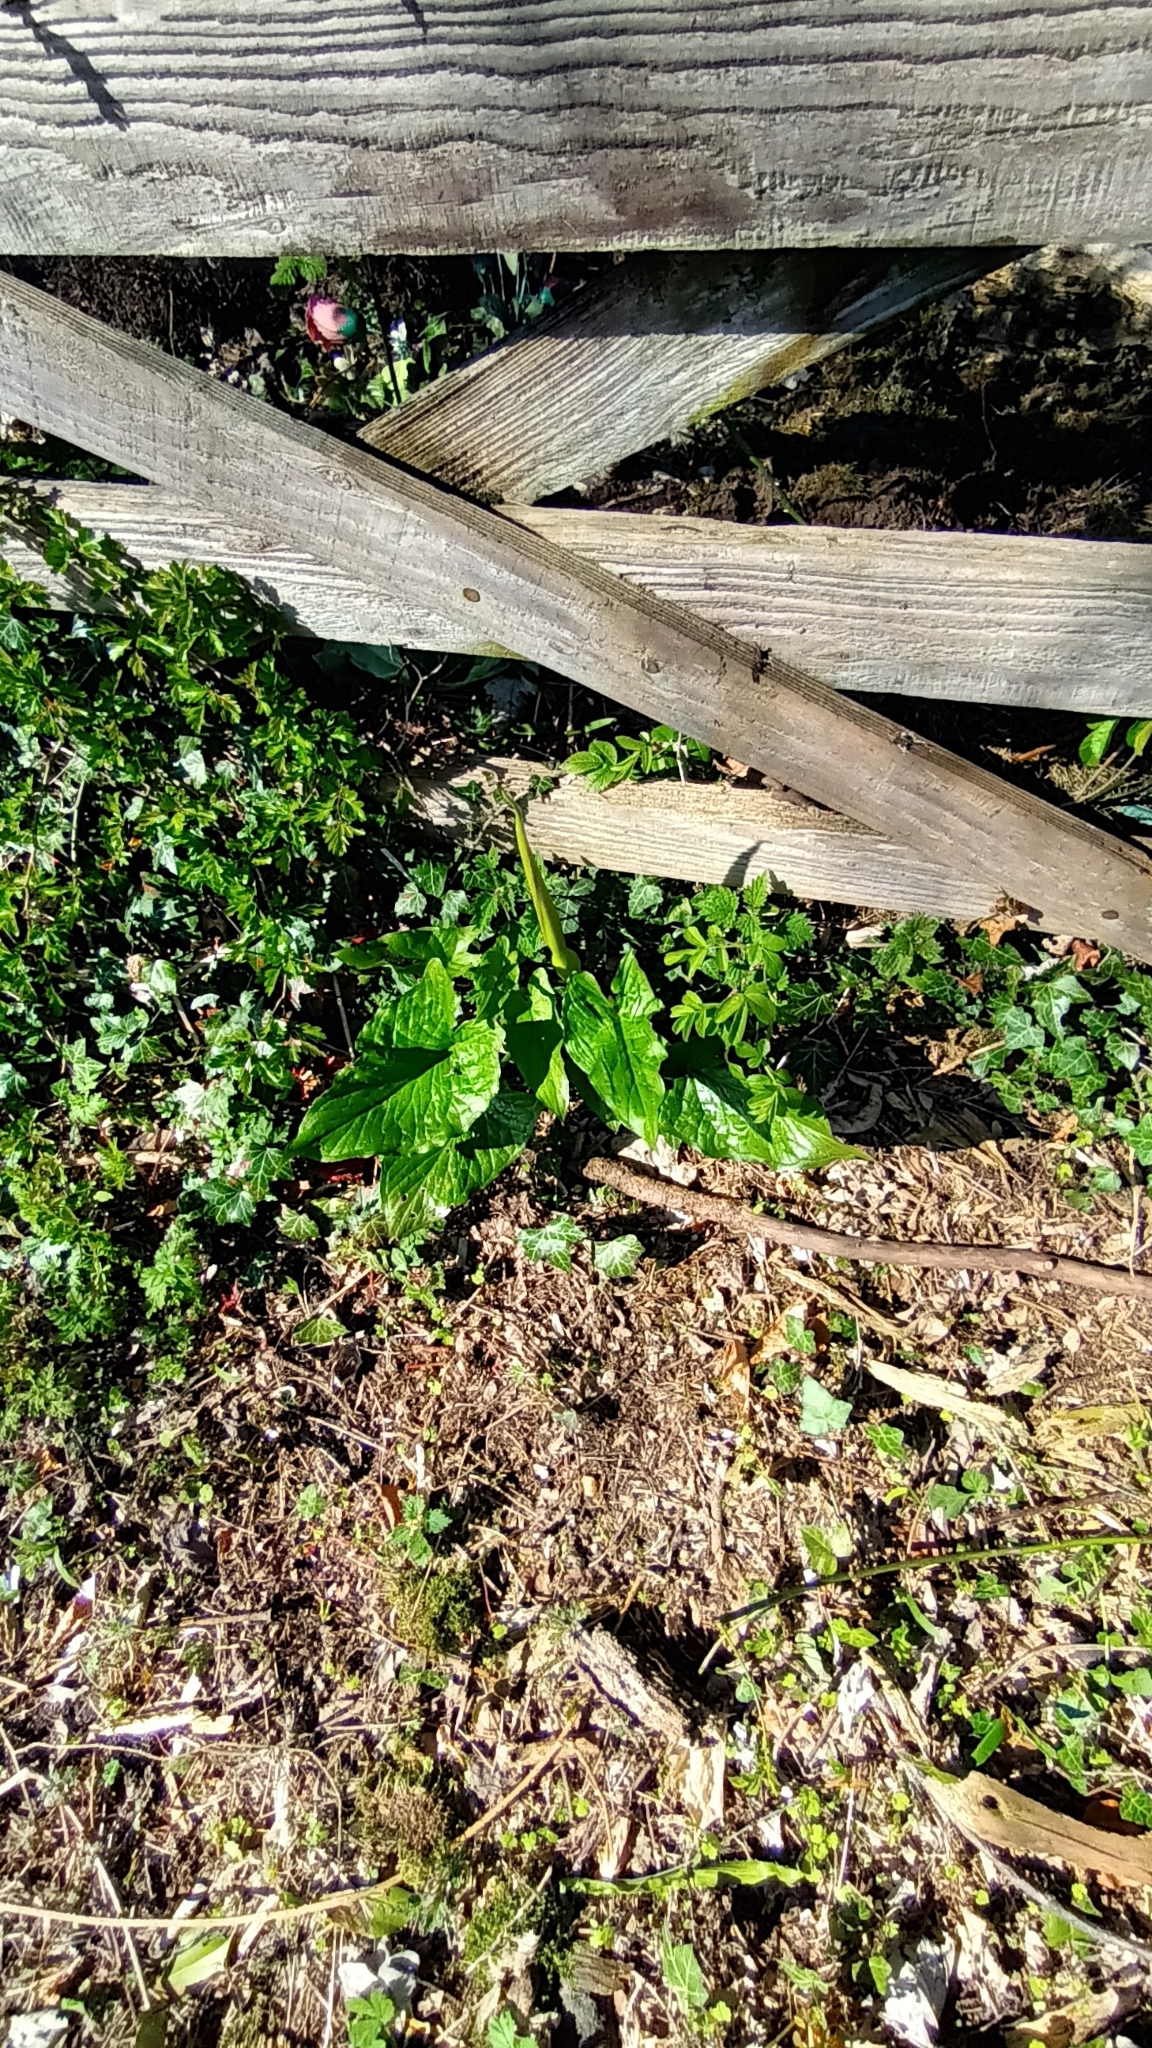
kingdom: Plantae
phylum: Tracheophyta
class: Liliopsida
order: Alismatales
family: Araceae
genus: Arum
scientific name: Arum maculatum
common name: Lords-and-ladies
